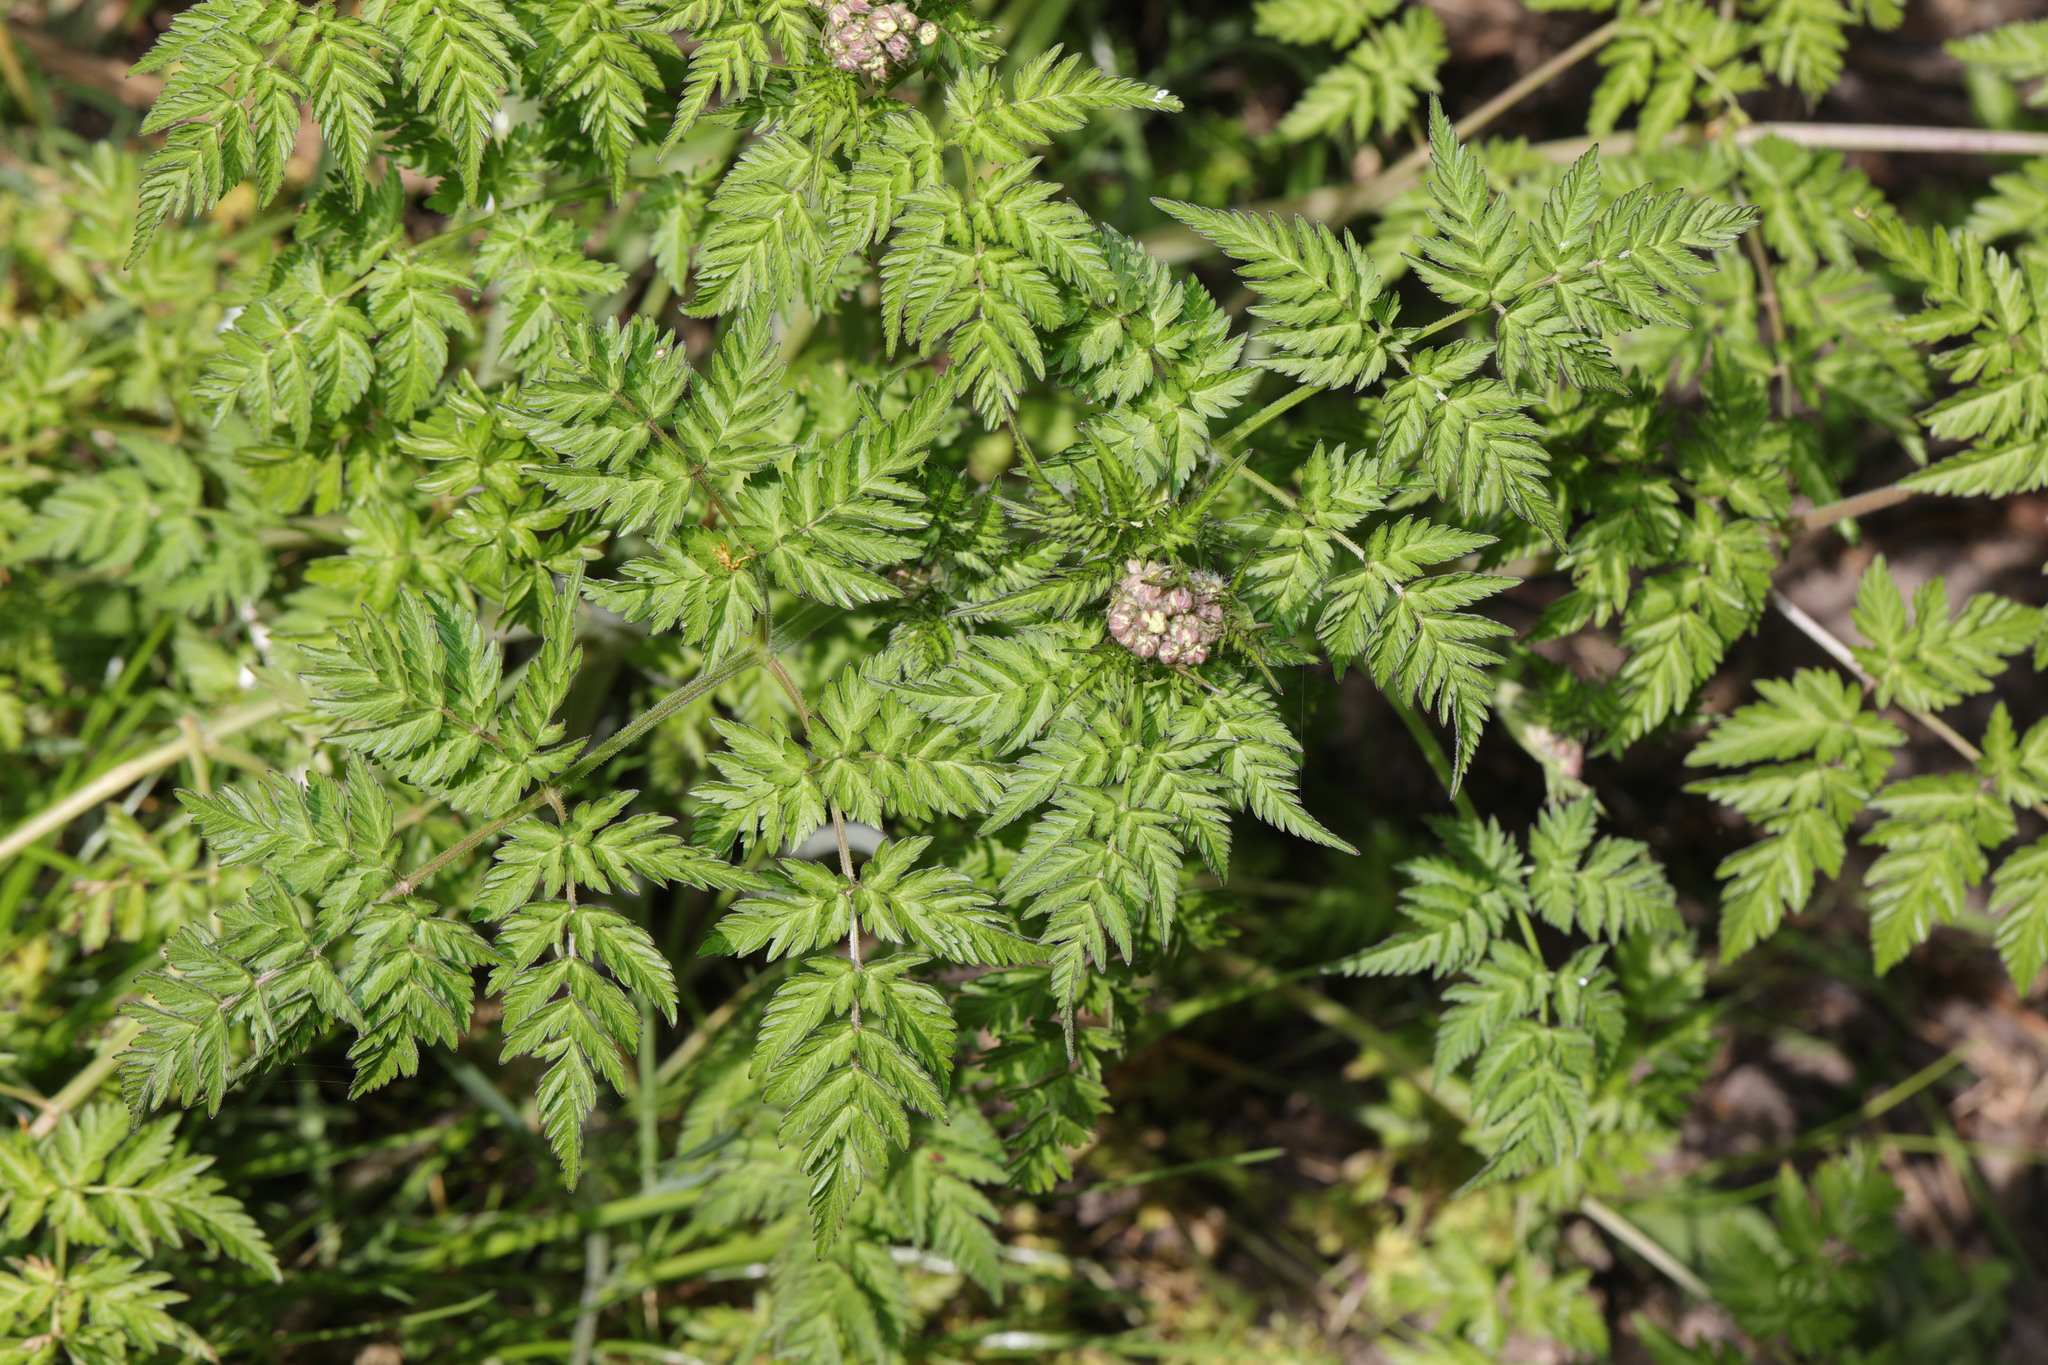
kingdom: Plantae
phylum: Tracheophyta
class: Magnoliopsida
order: Apiales
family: Apiaceae
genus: Anthriscus
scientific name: Anthriscus sylvestris
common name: Cow parsley
